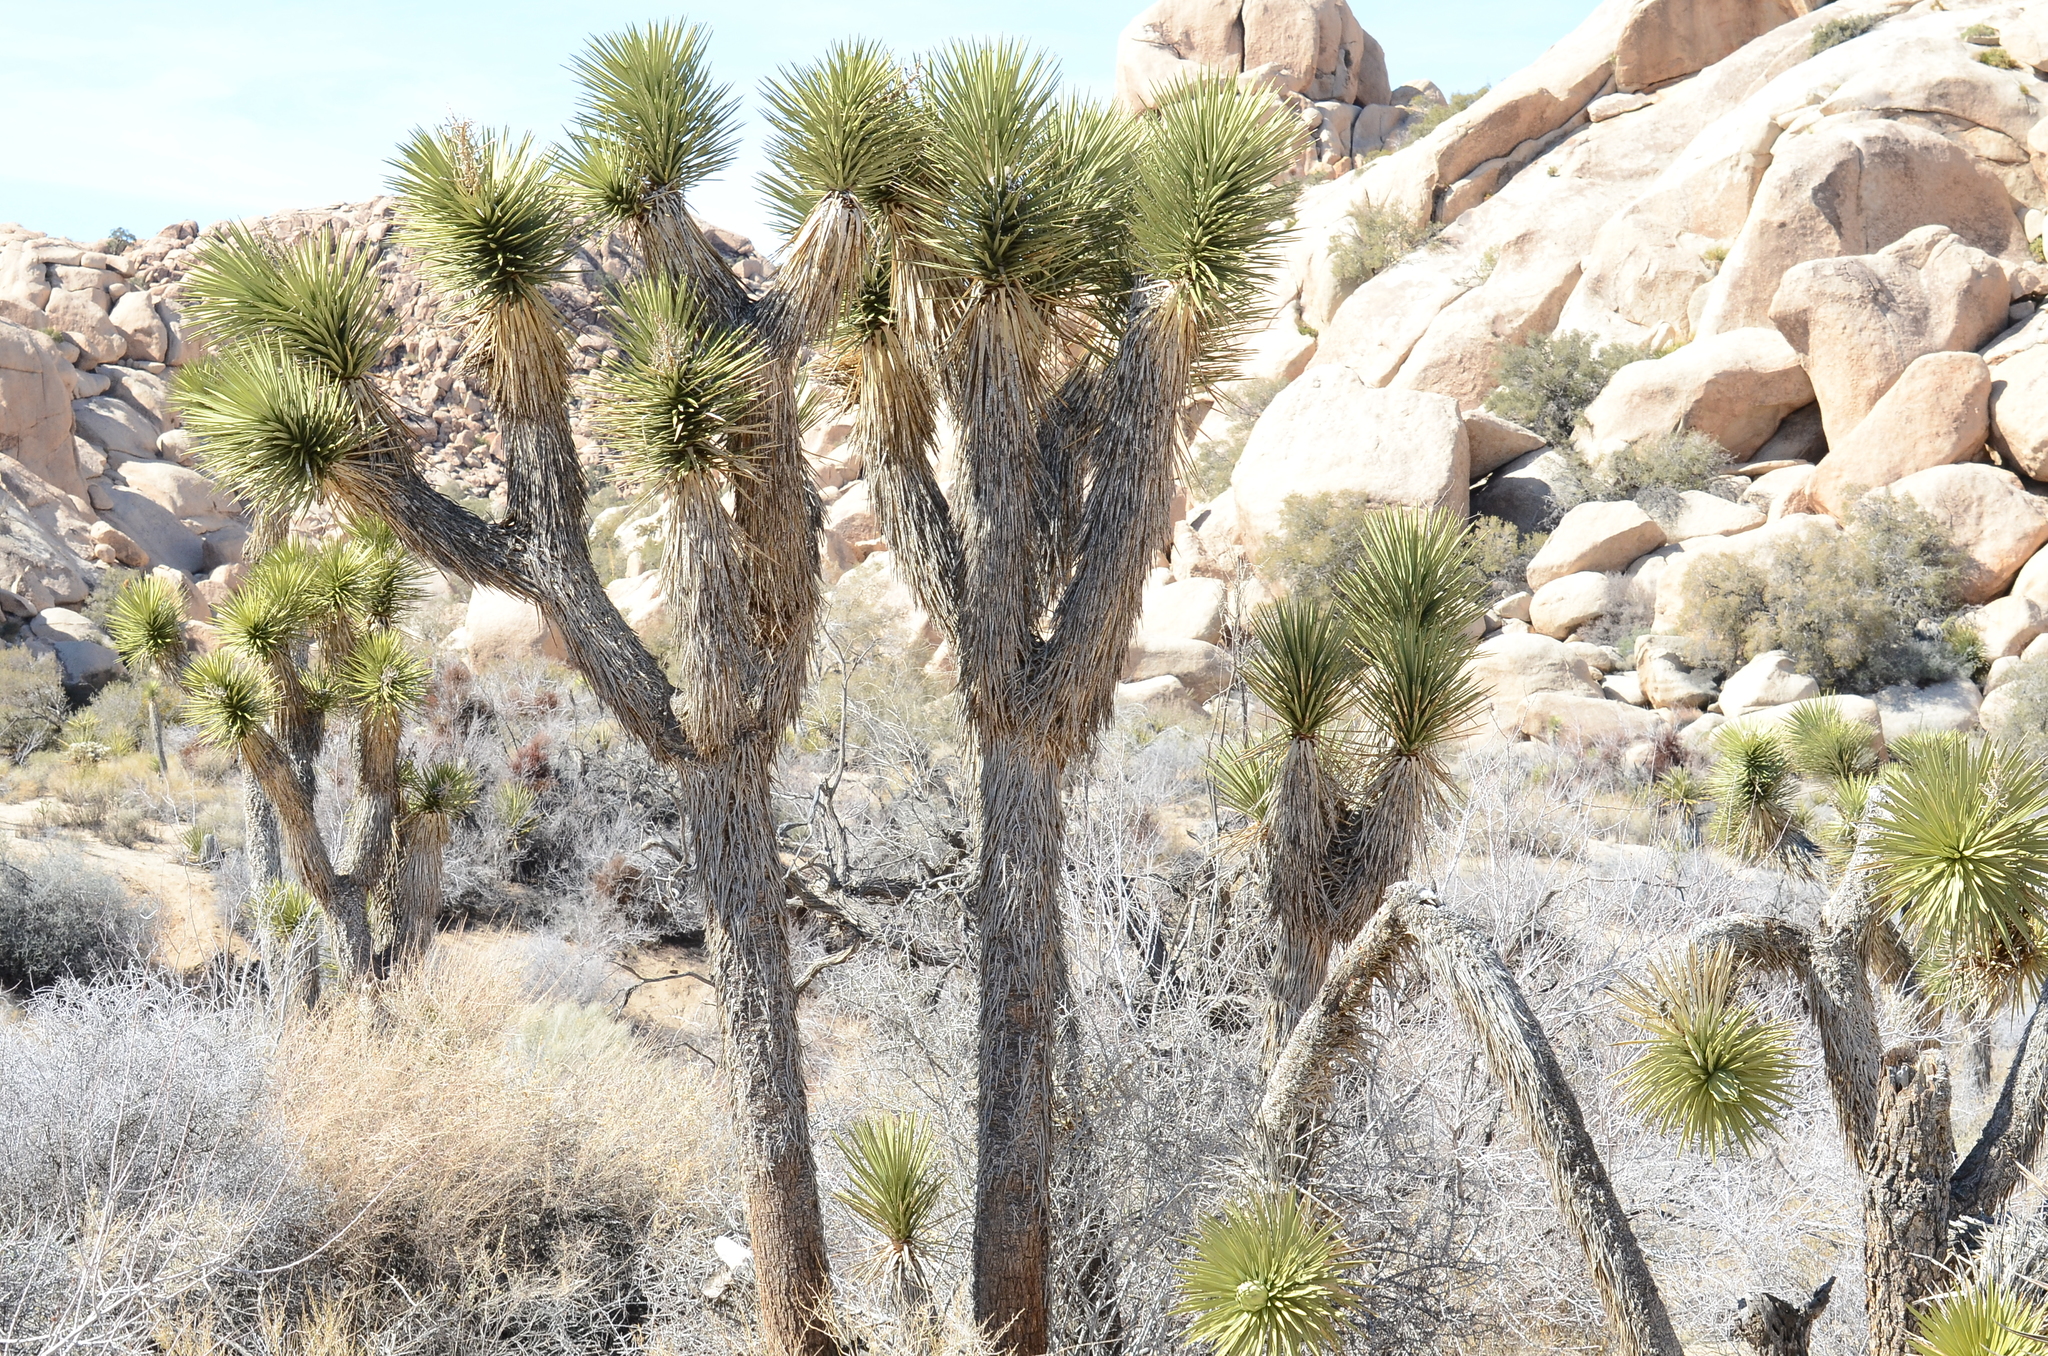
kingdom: Plantae
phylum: Tracheophyta
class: Liliopsida
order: Asparagales
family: Asparagaceae
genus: Yucca
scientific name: Yucca brevifolia
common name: Joshua tree
